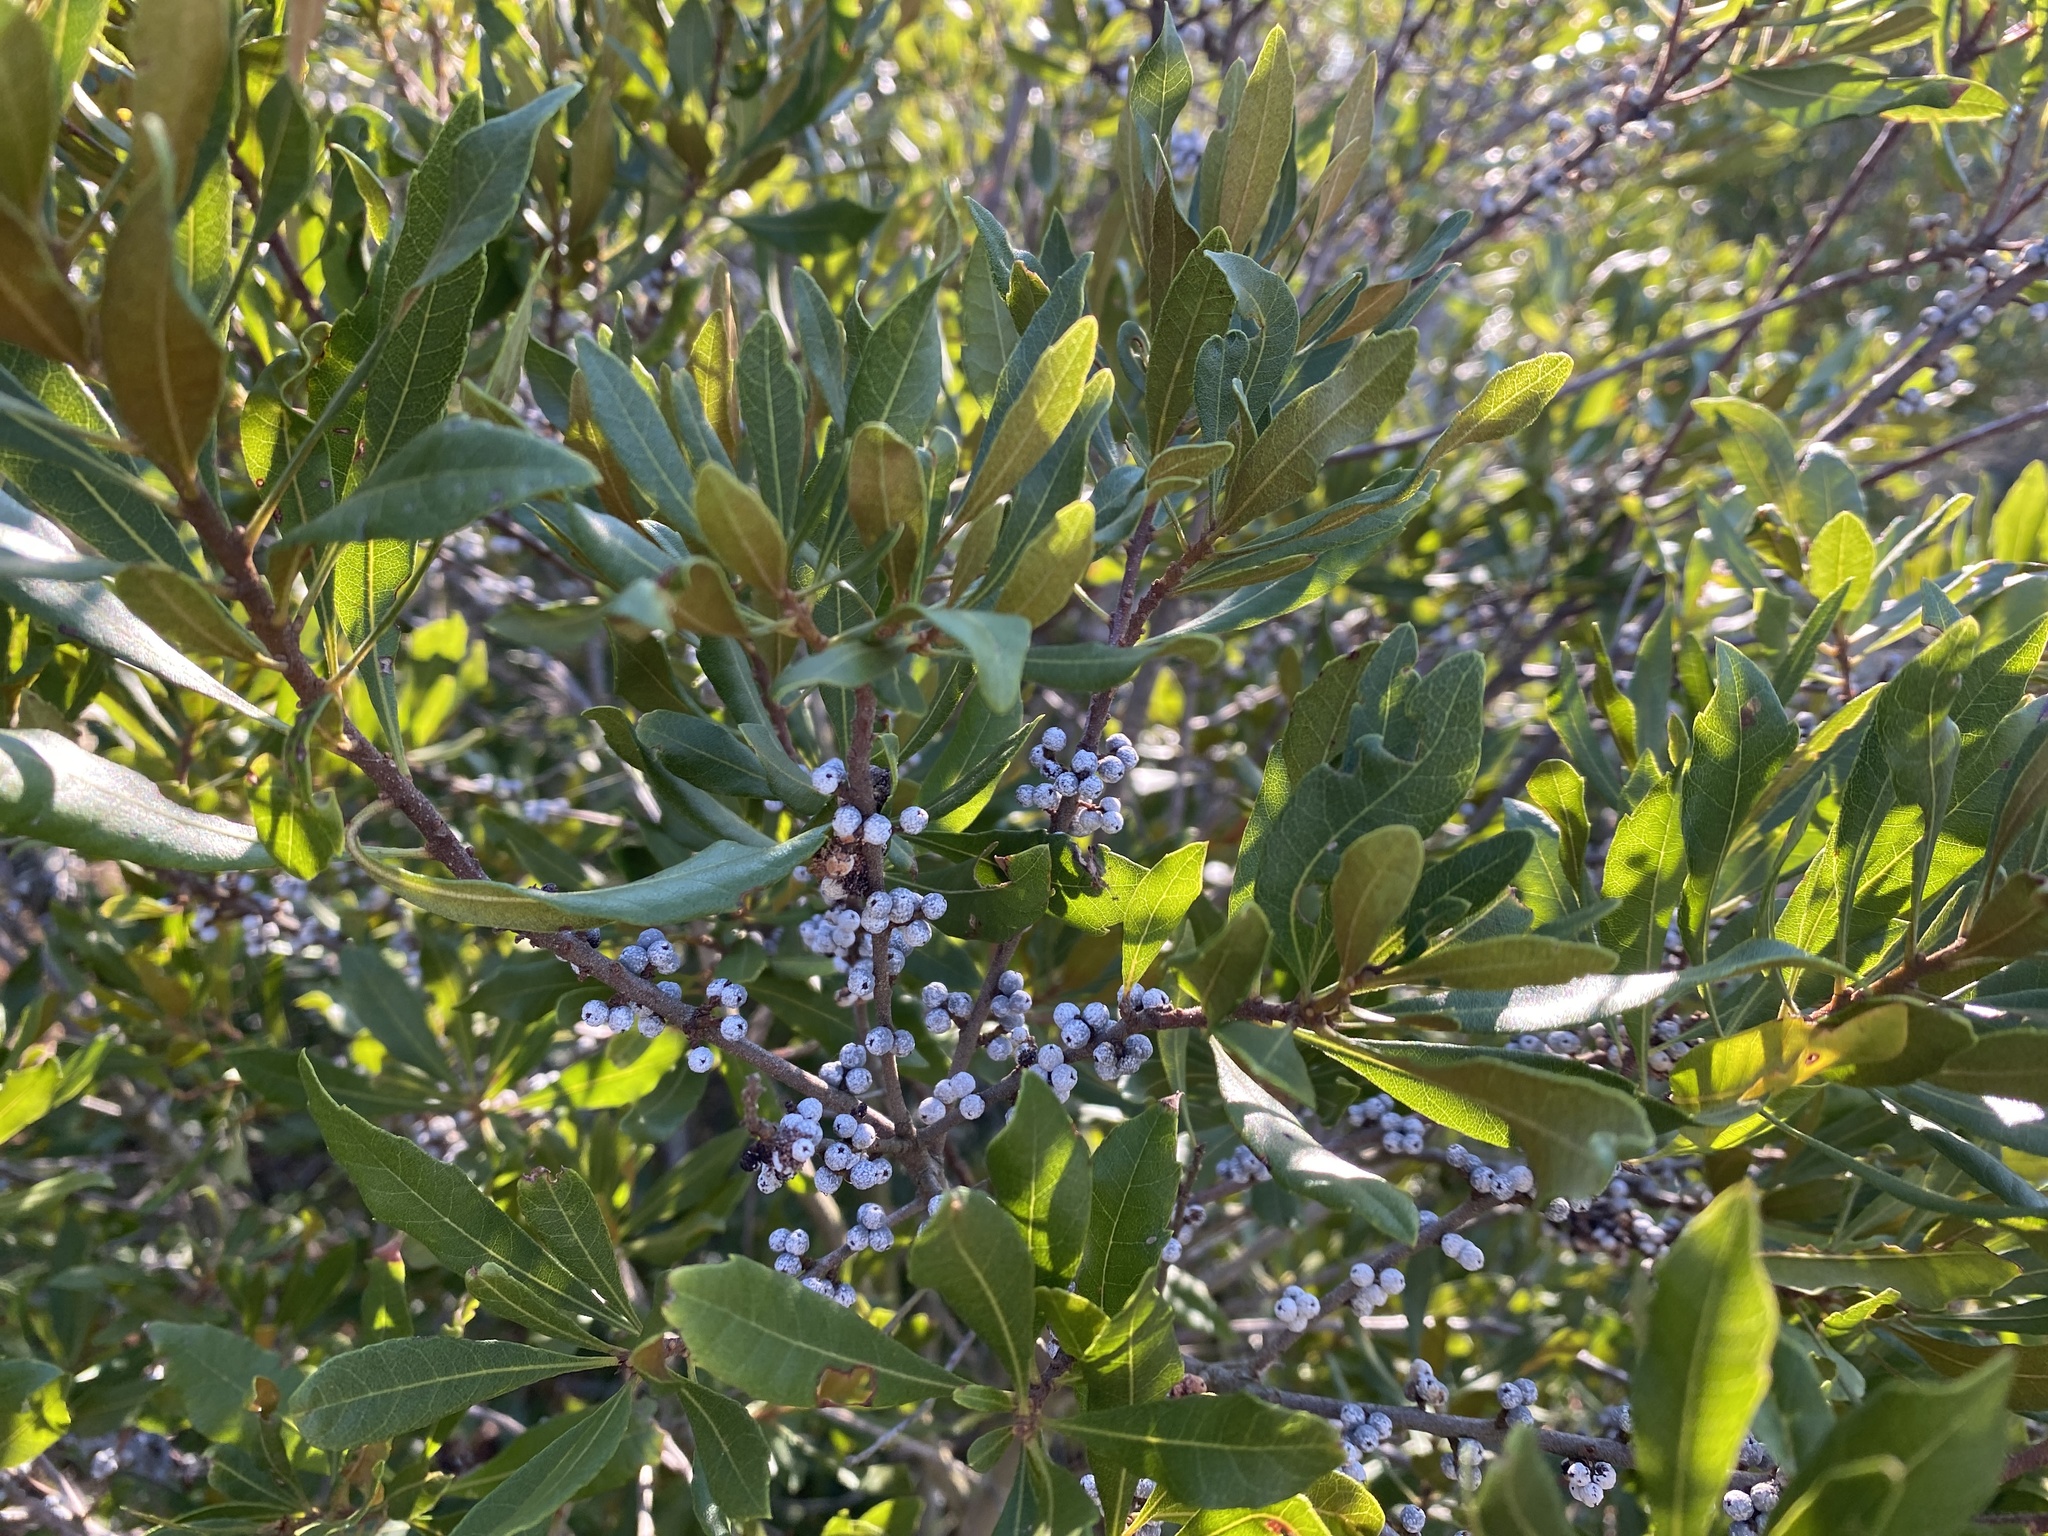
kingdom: Plantae
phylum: Tracheophyta
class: Magnoliopsida
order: Fagales
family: Myricaceae
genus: Morella
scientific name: Morella cerifera
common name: Wax myrtle
